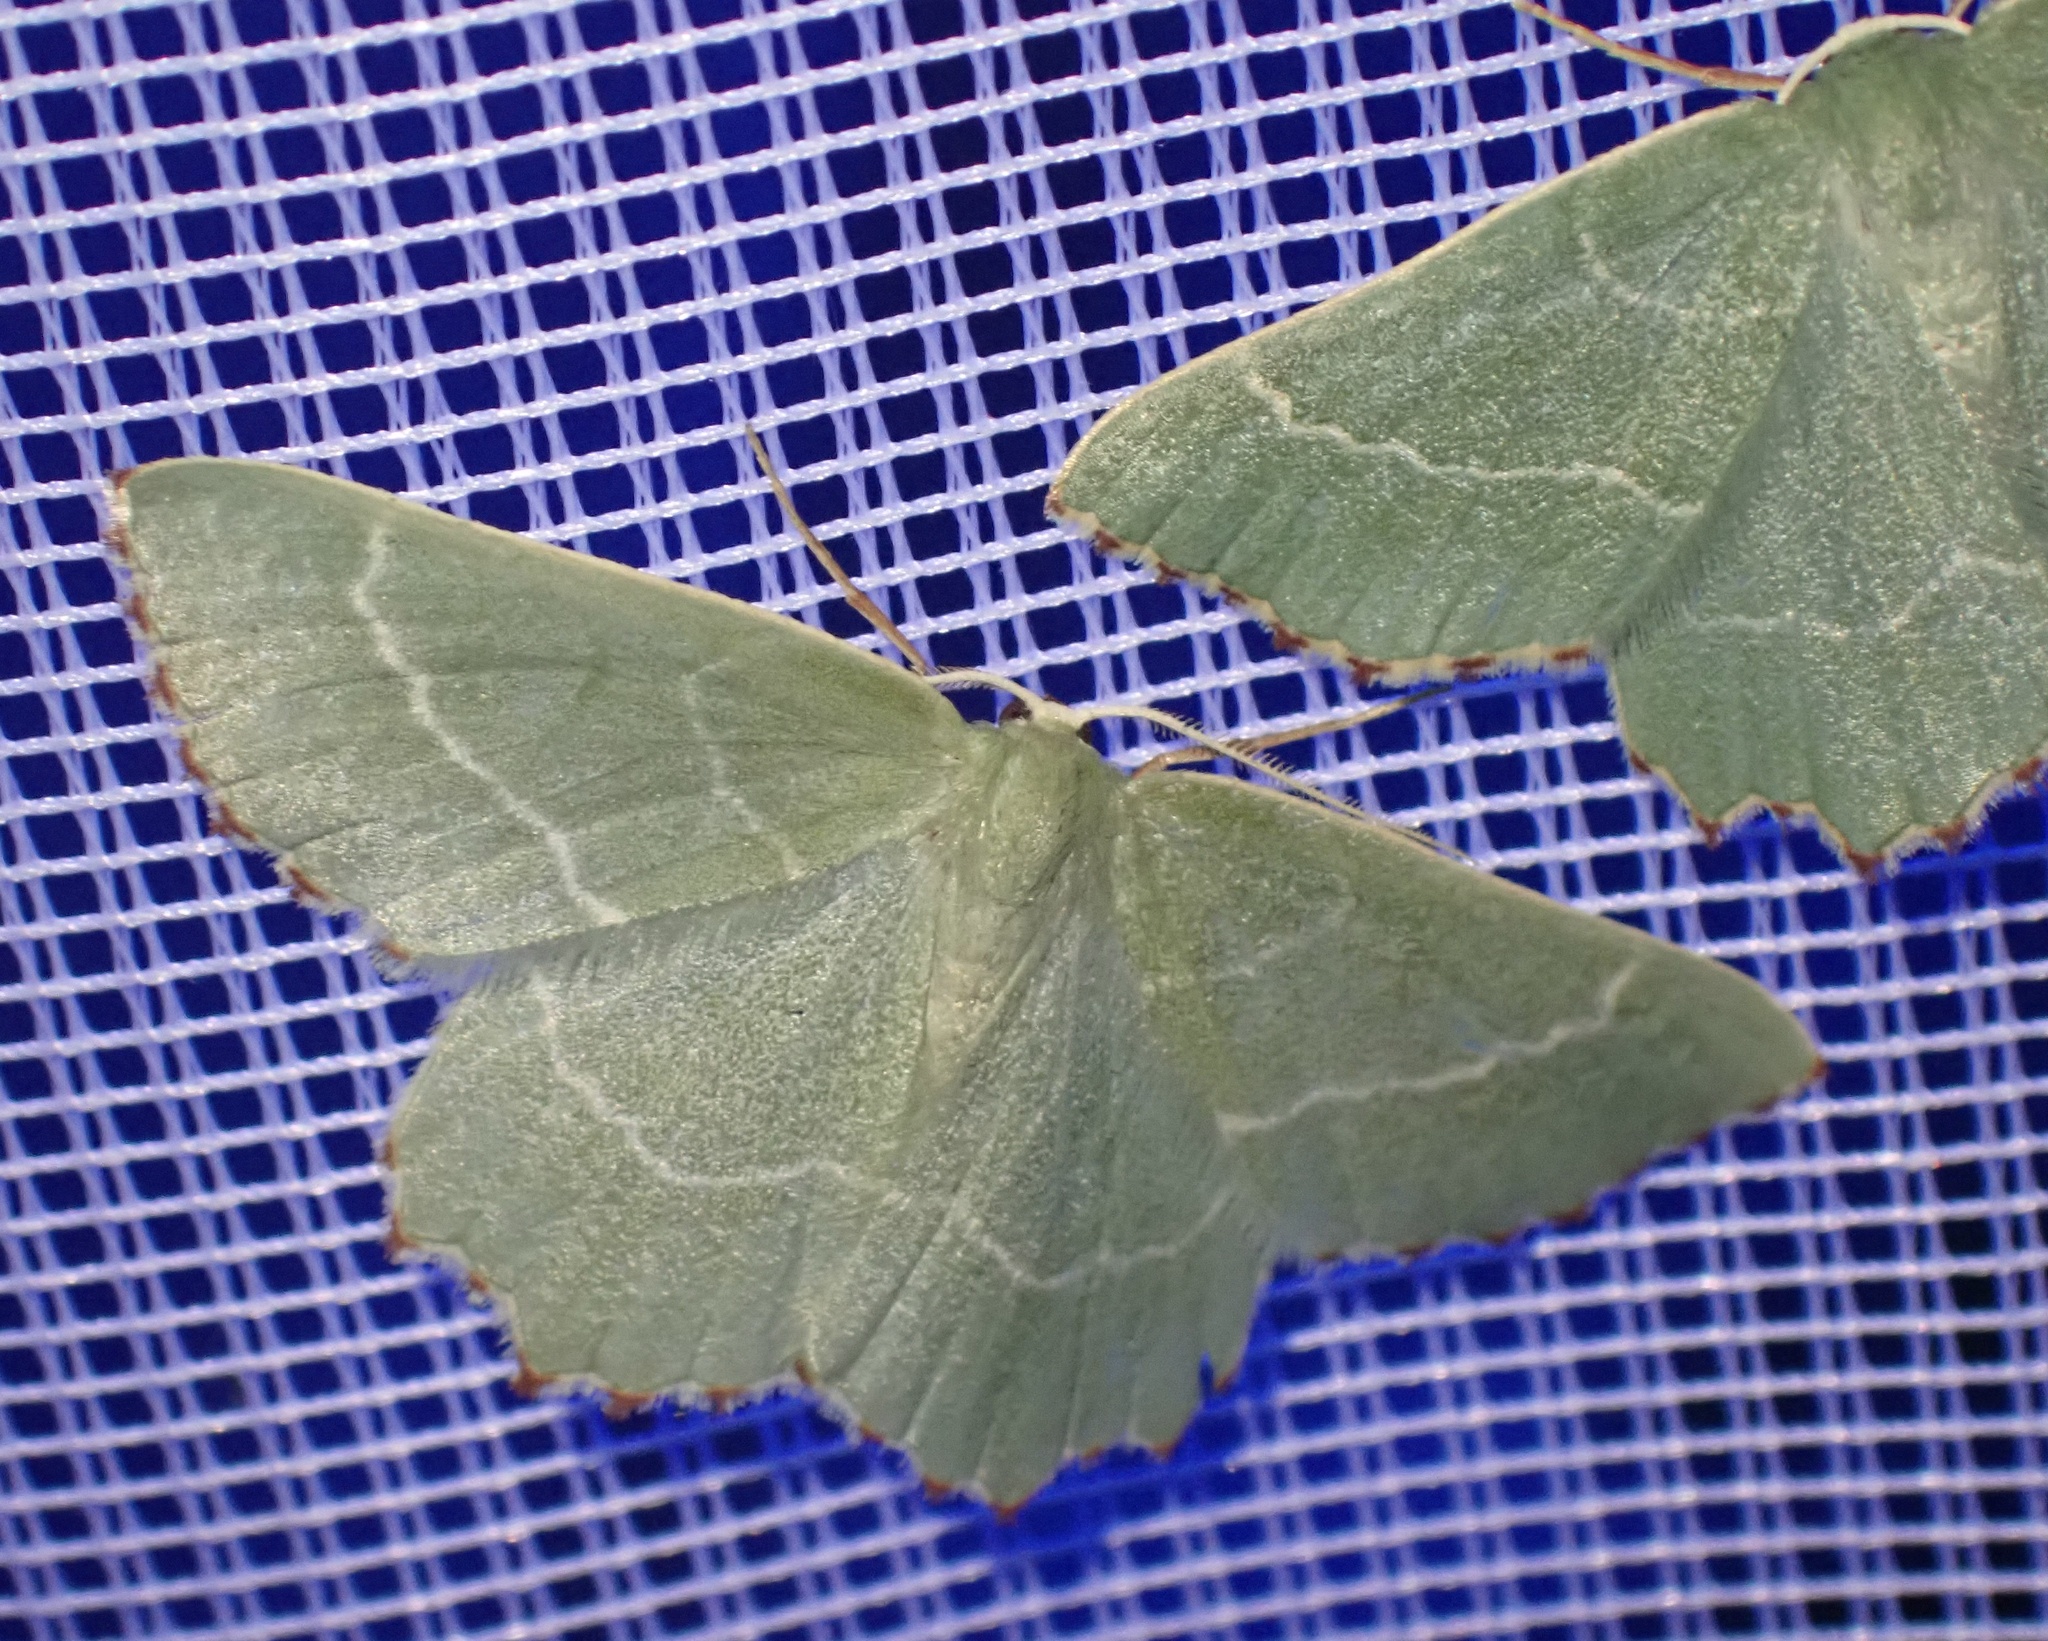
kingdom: Animalia
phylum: Arthropoda
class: Insecta
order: Lepidoptera
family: Geometridae
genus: Thalera
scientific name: Thalera fimbrialis
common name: Sussex emerald
